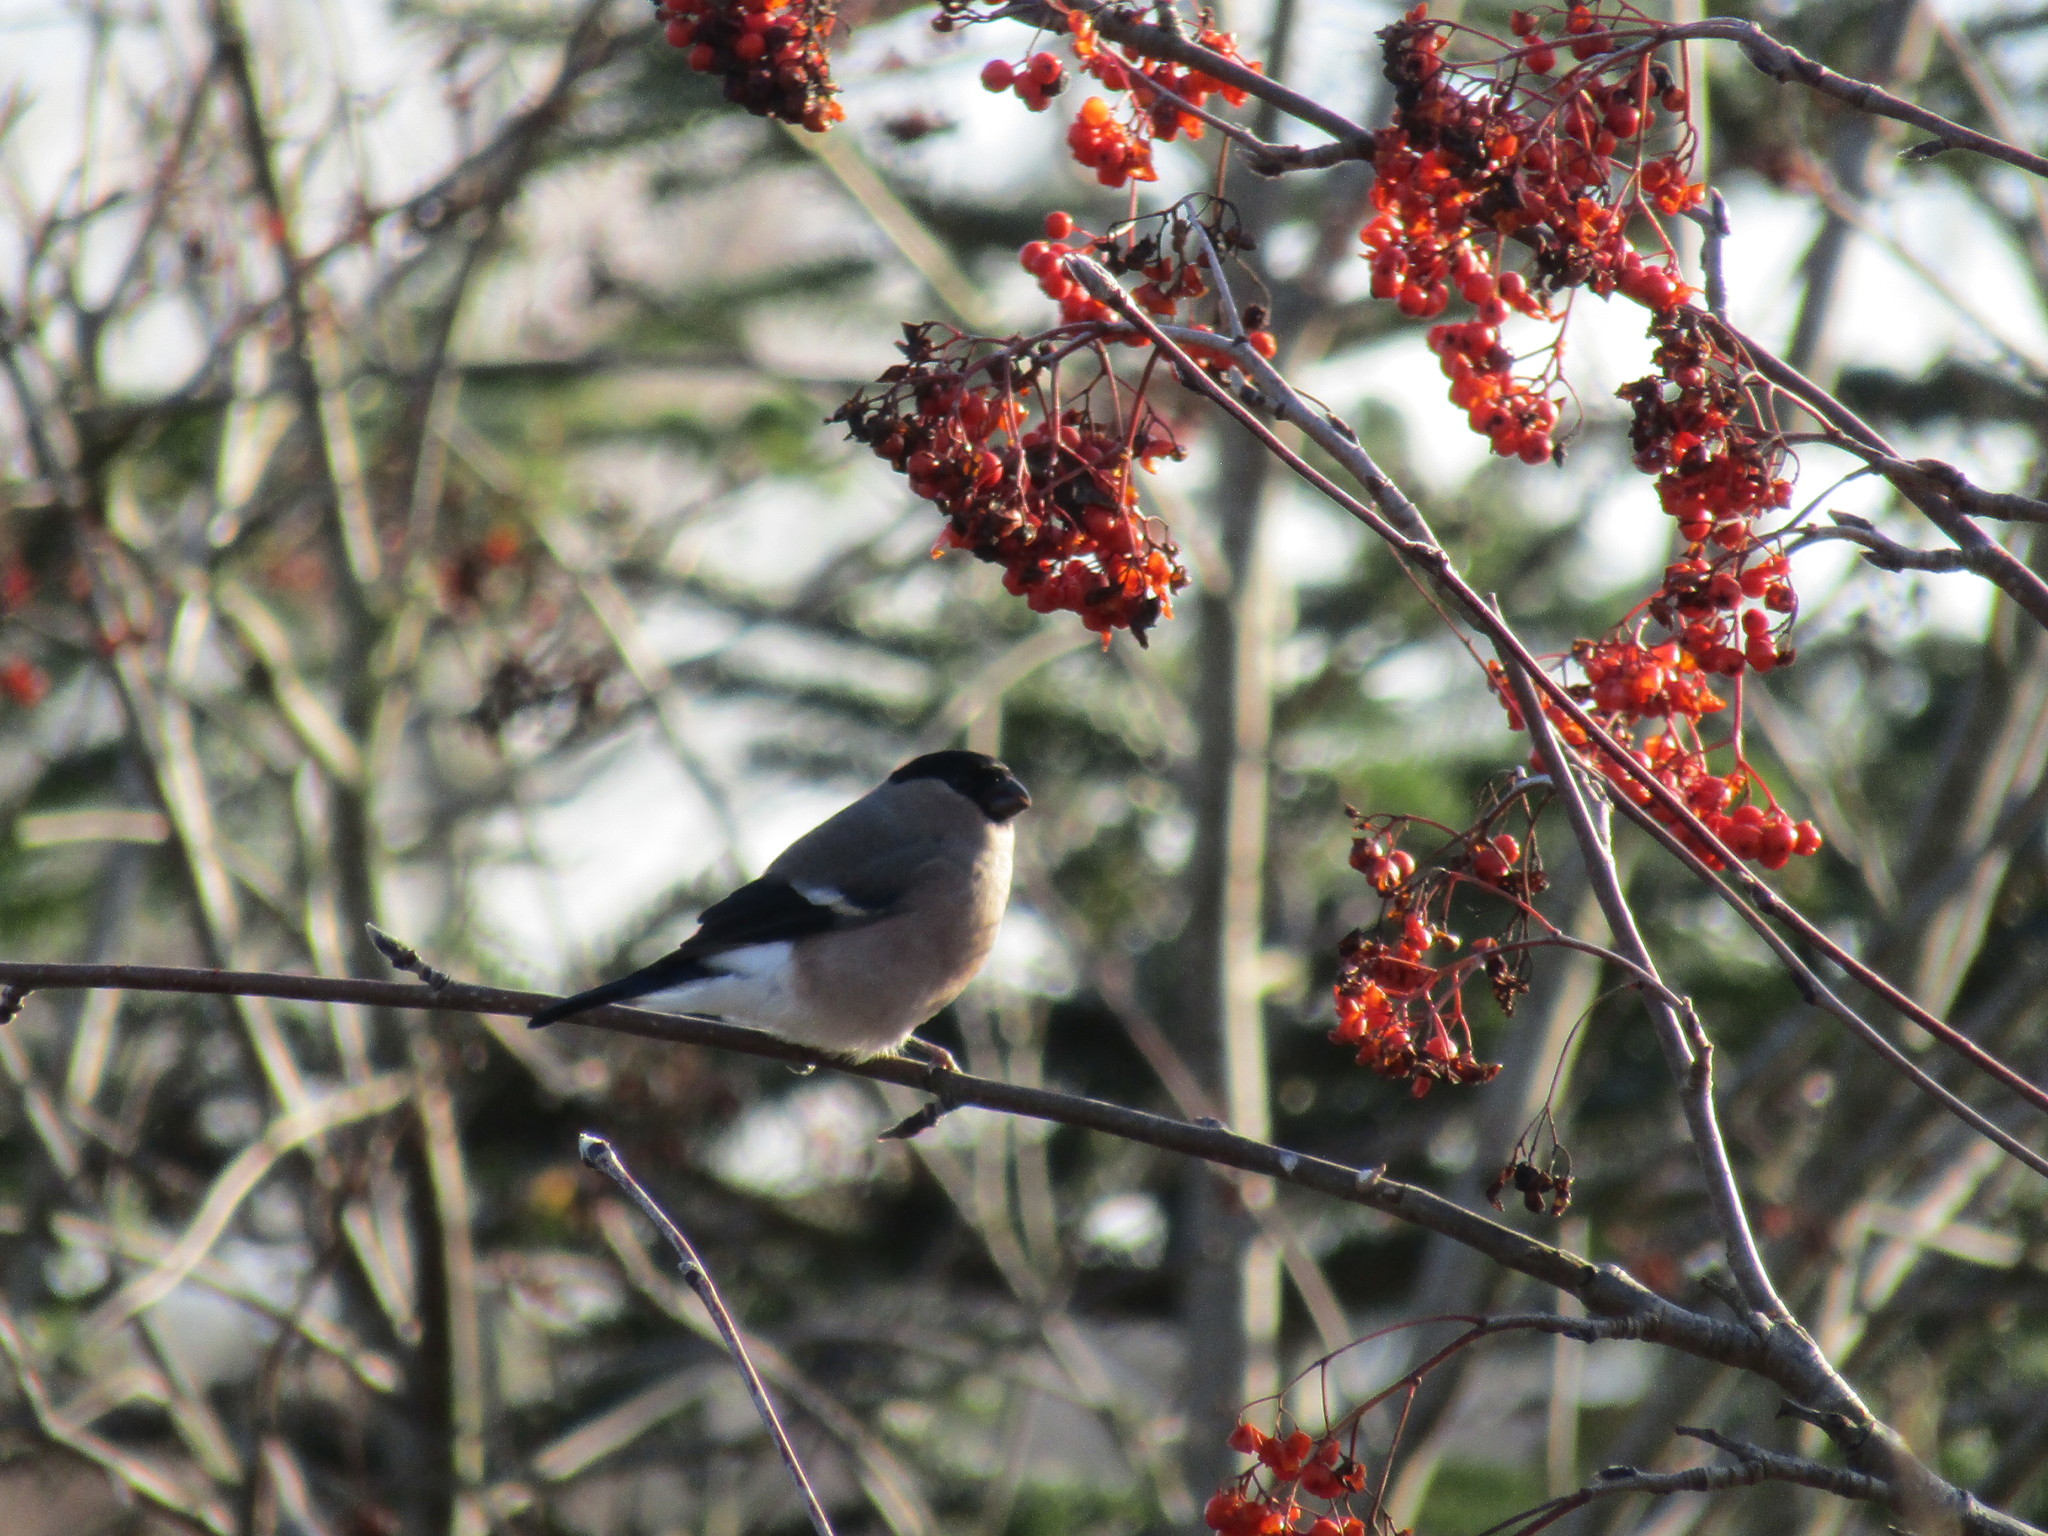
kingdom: Animalia
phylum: Chordata
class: Aves
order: Passeriformes
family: Fringillidae
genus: Pyrrhula
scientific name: Pyrrhula pyrrhula
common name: Eurasian bullfinch
